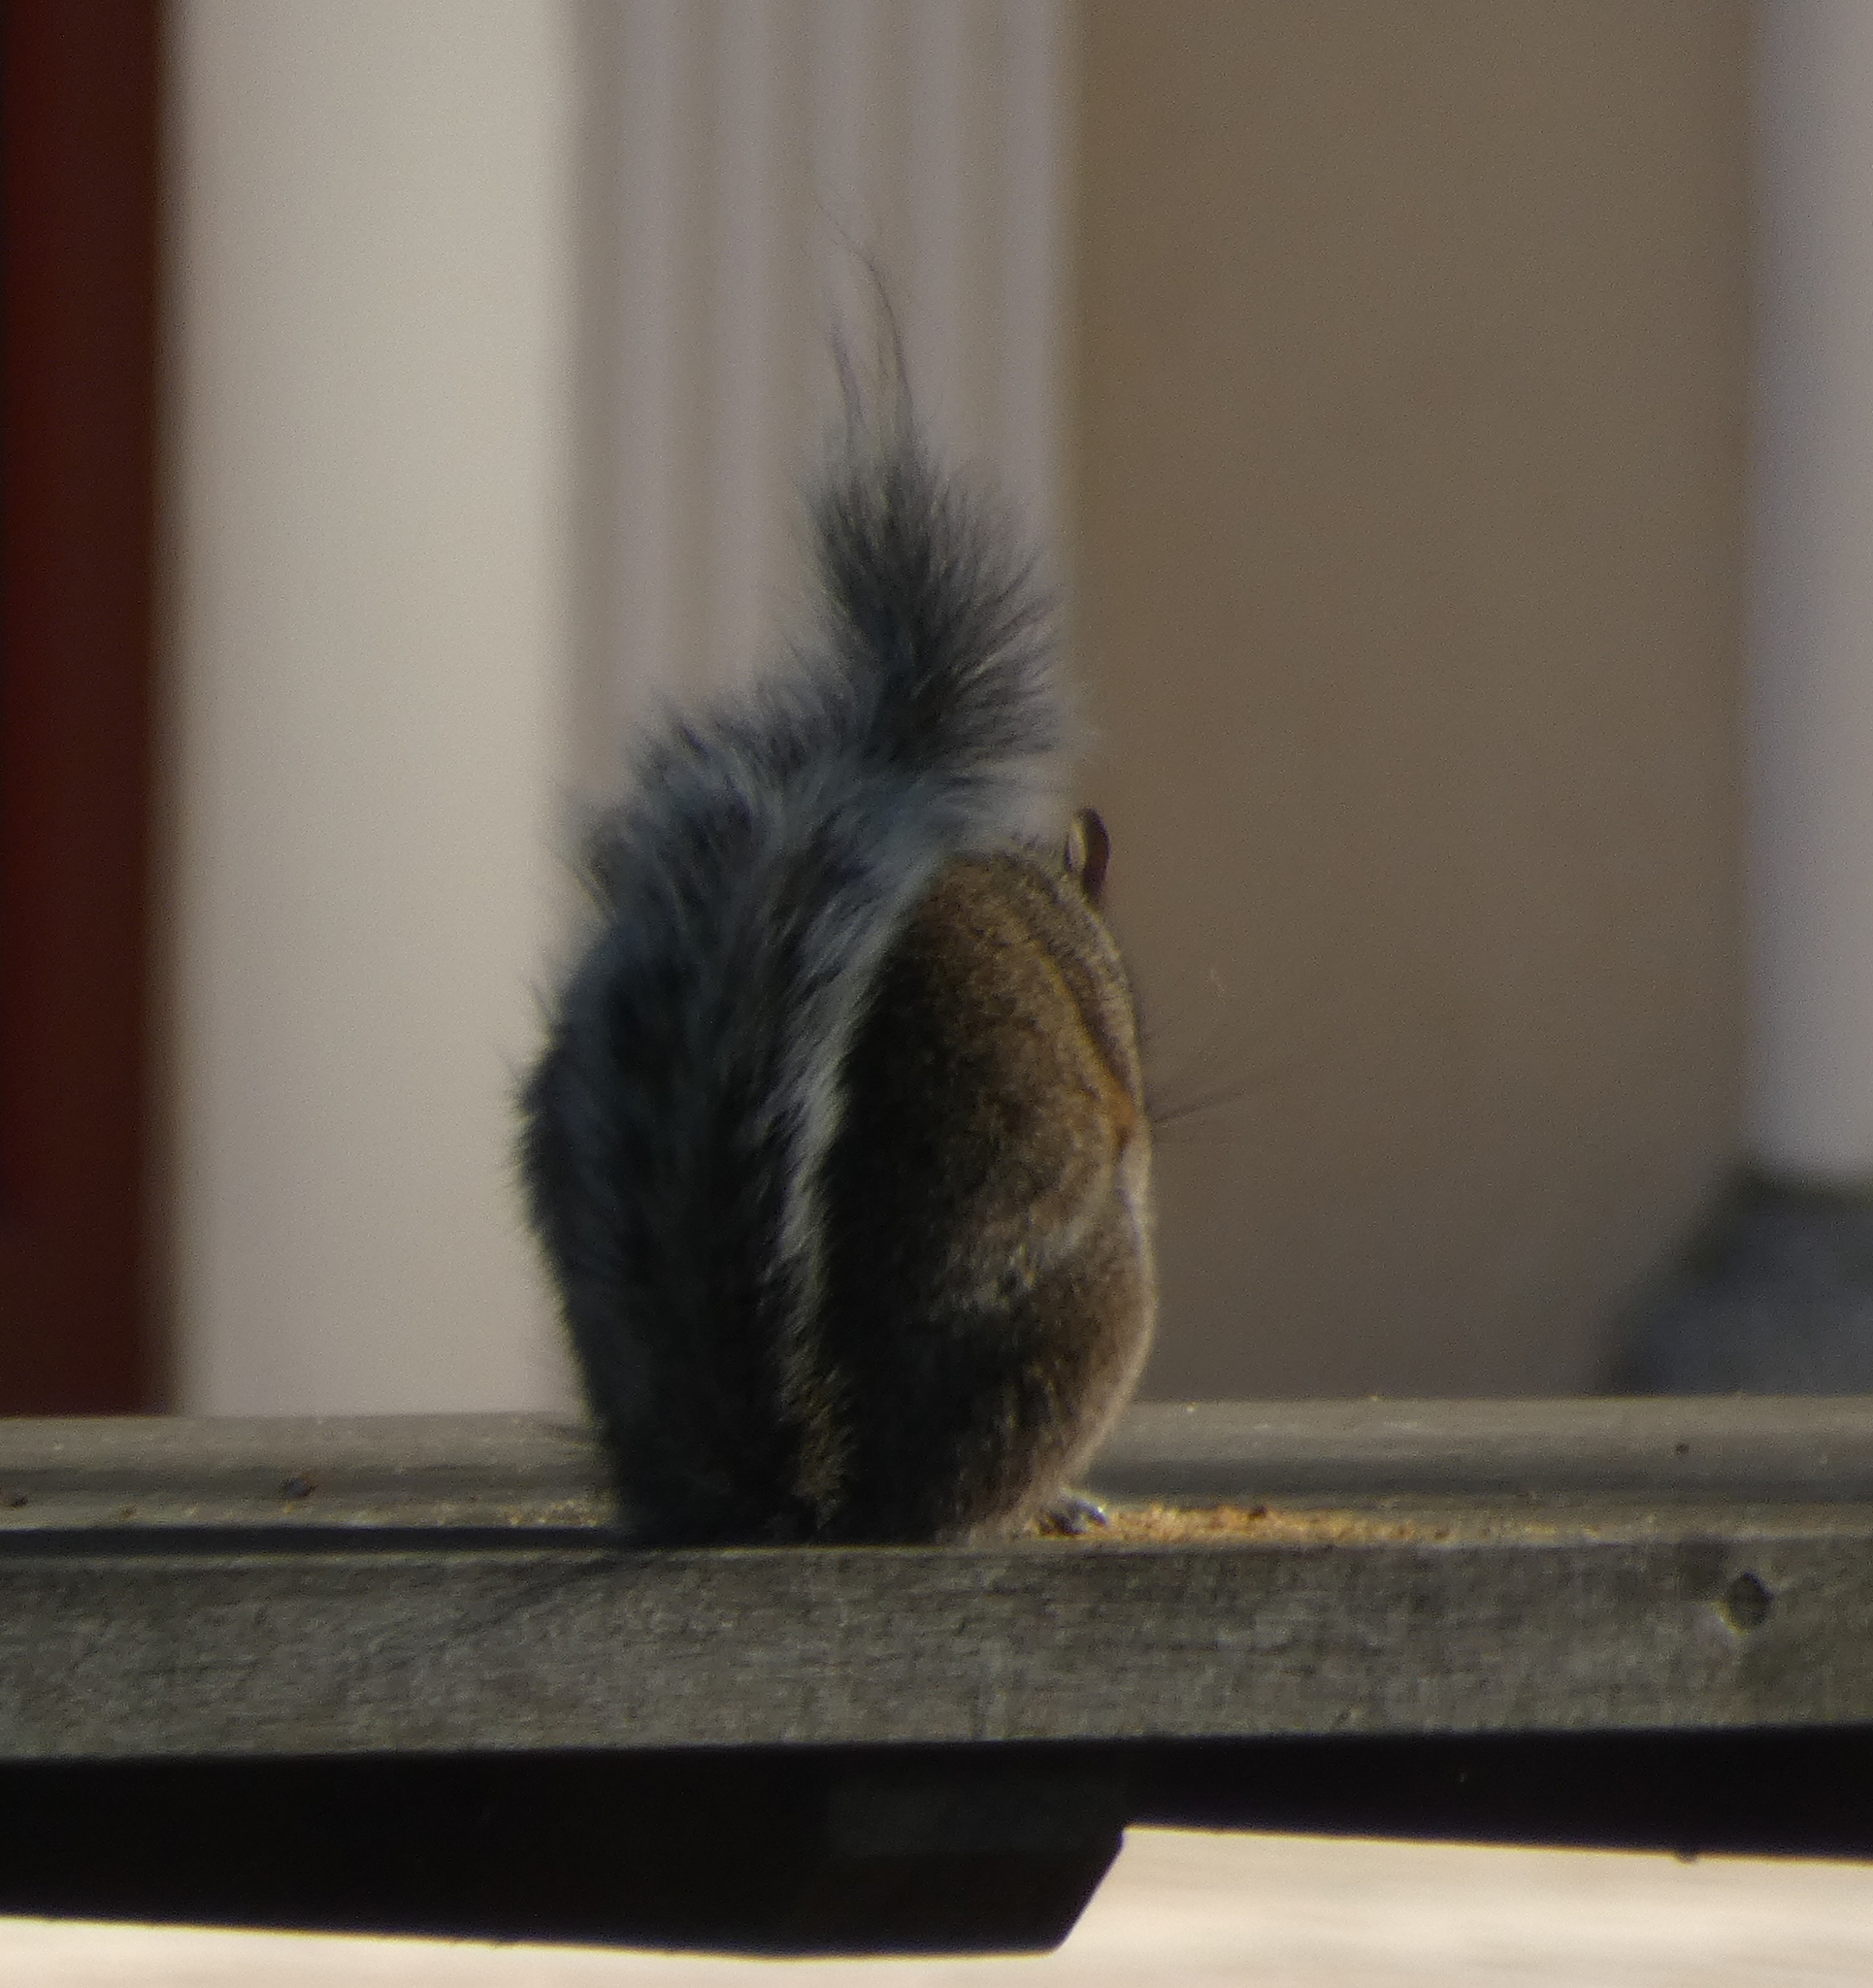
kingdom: Animalia
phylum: Chordata
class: Mammalia
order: Rodentia
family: Sciuridae
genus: Sciurus
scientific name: Sciurus carolinensis
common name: Eastern gray squirrel
